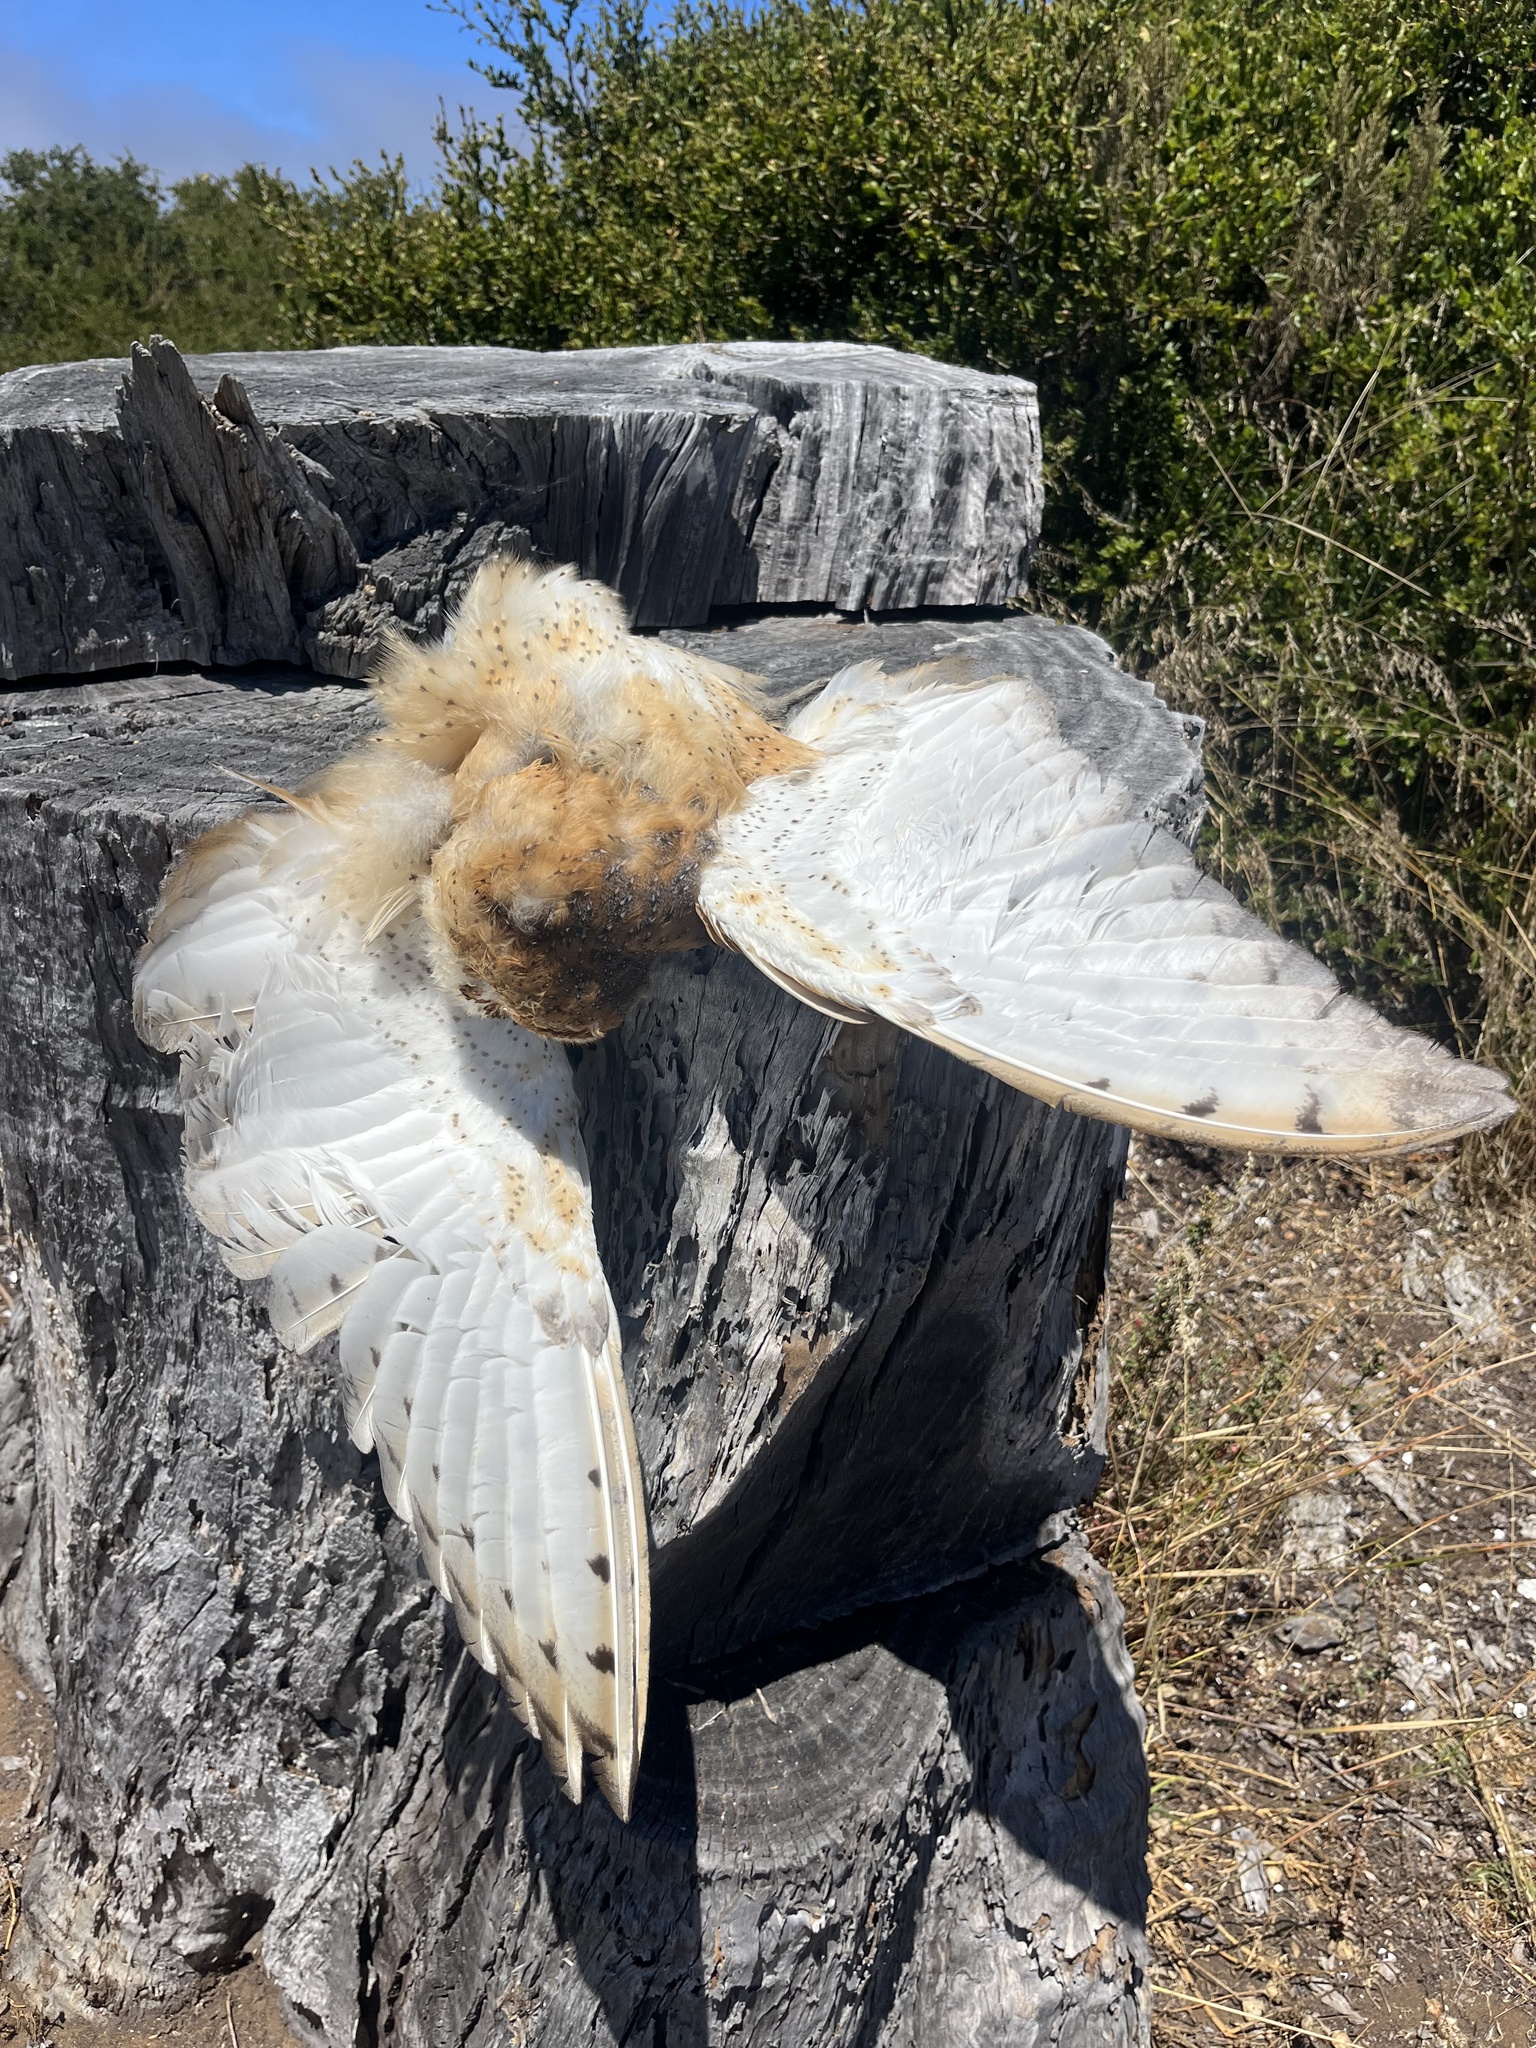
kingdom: Animalia
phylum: Chordata
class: Aves
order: Strigiformes
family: Tytonidae
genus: Tyto
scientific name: Tyto alba
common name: Barn owl
